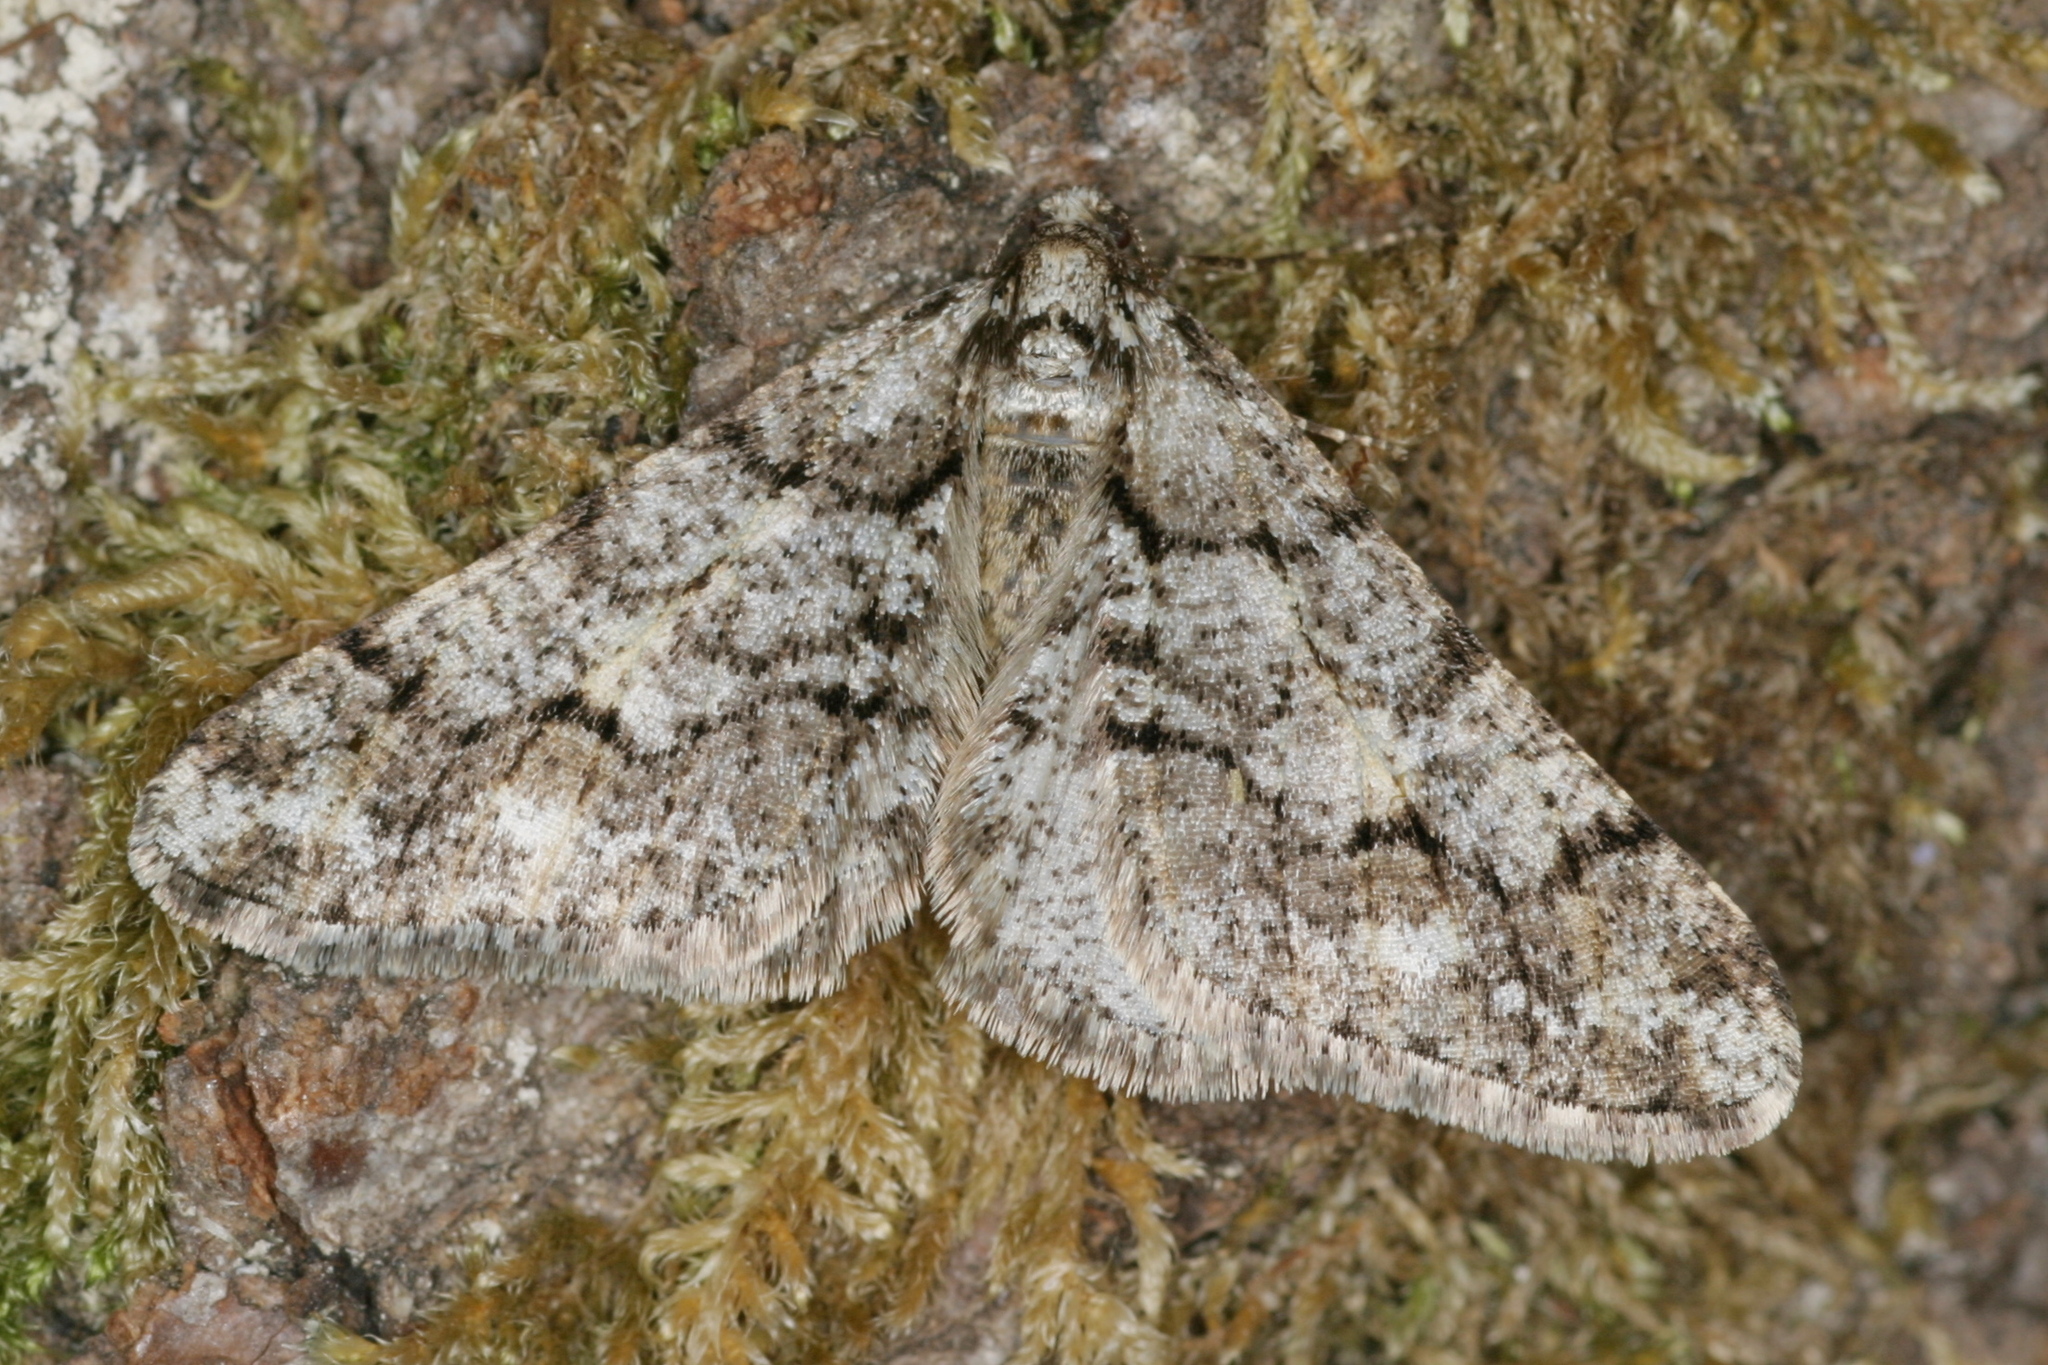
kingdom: Animalia
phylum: Arthropoda
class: Insecta
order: Lepidoptera
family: Geometridae
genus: Agriopis
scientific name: Agriopis leucophaearia
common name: Spring usher
